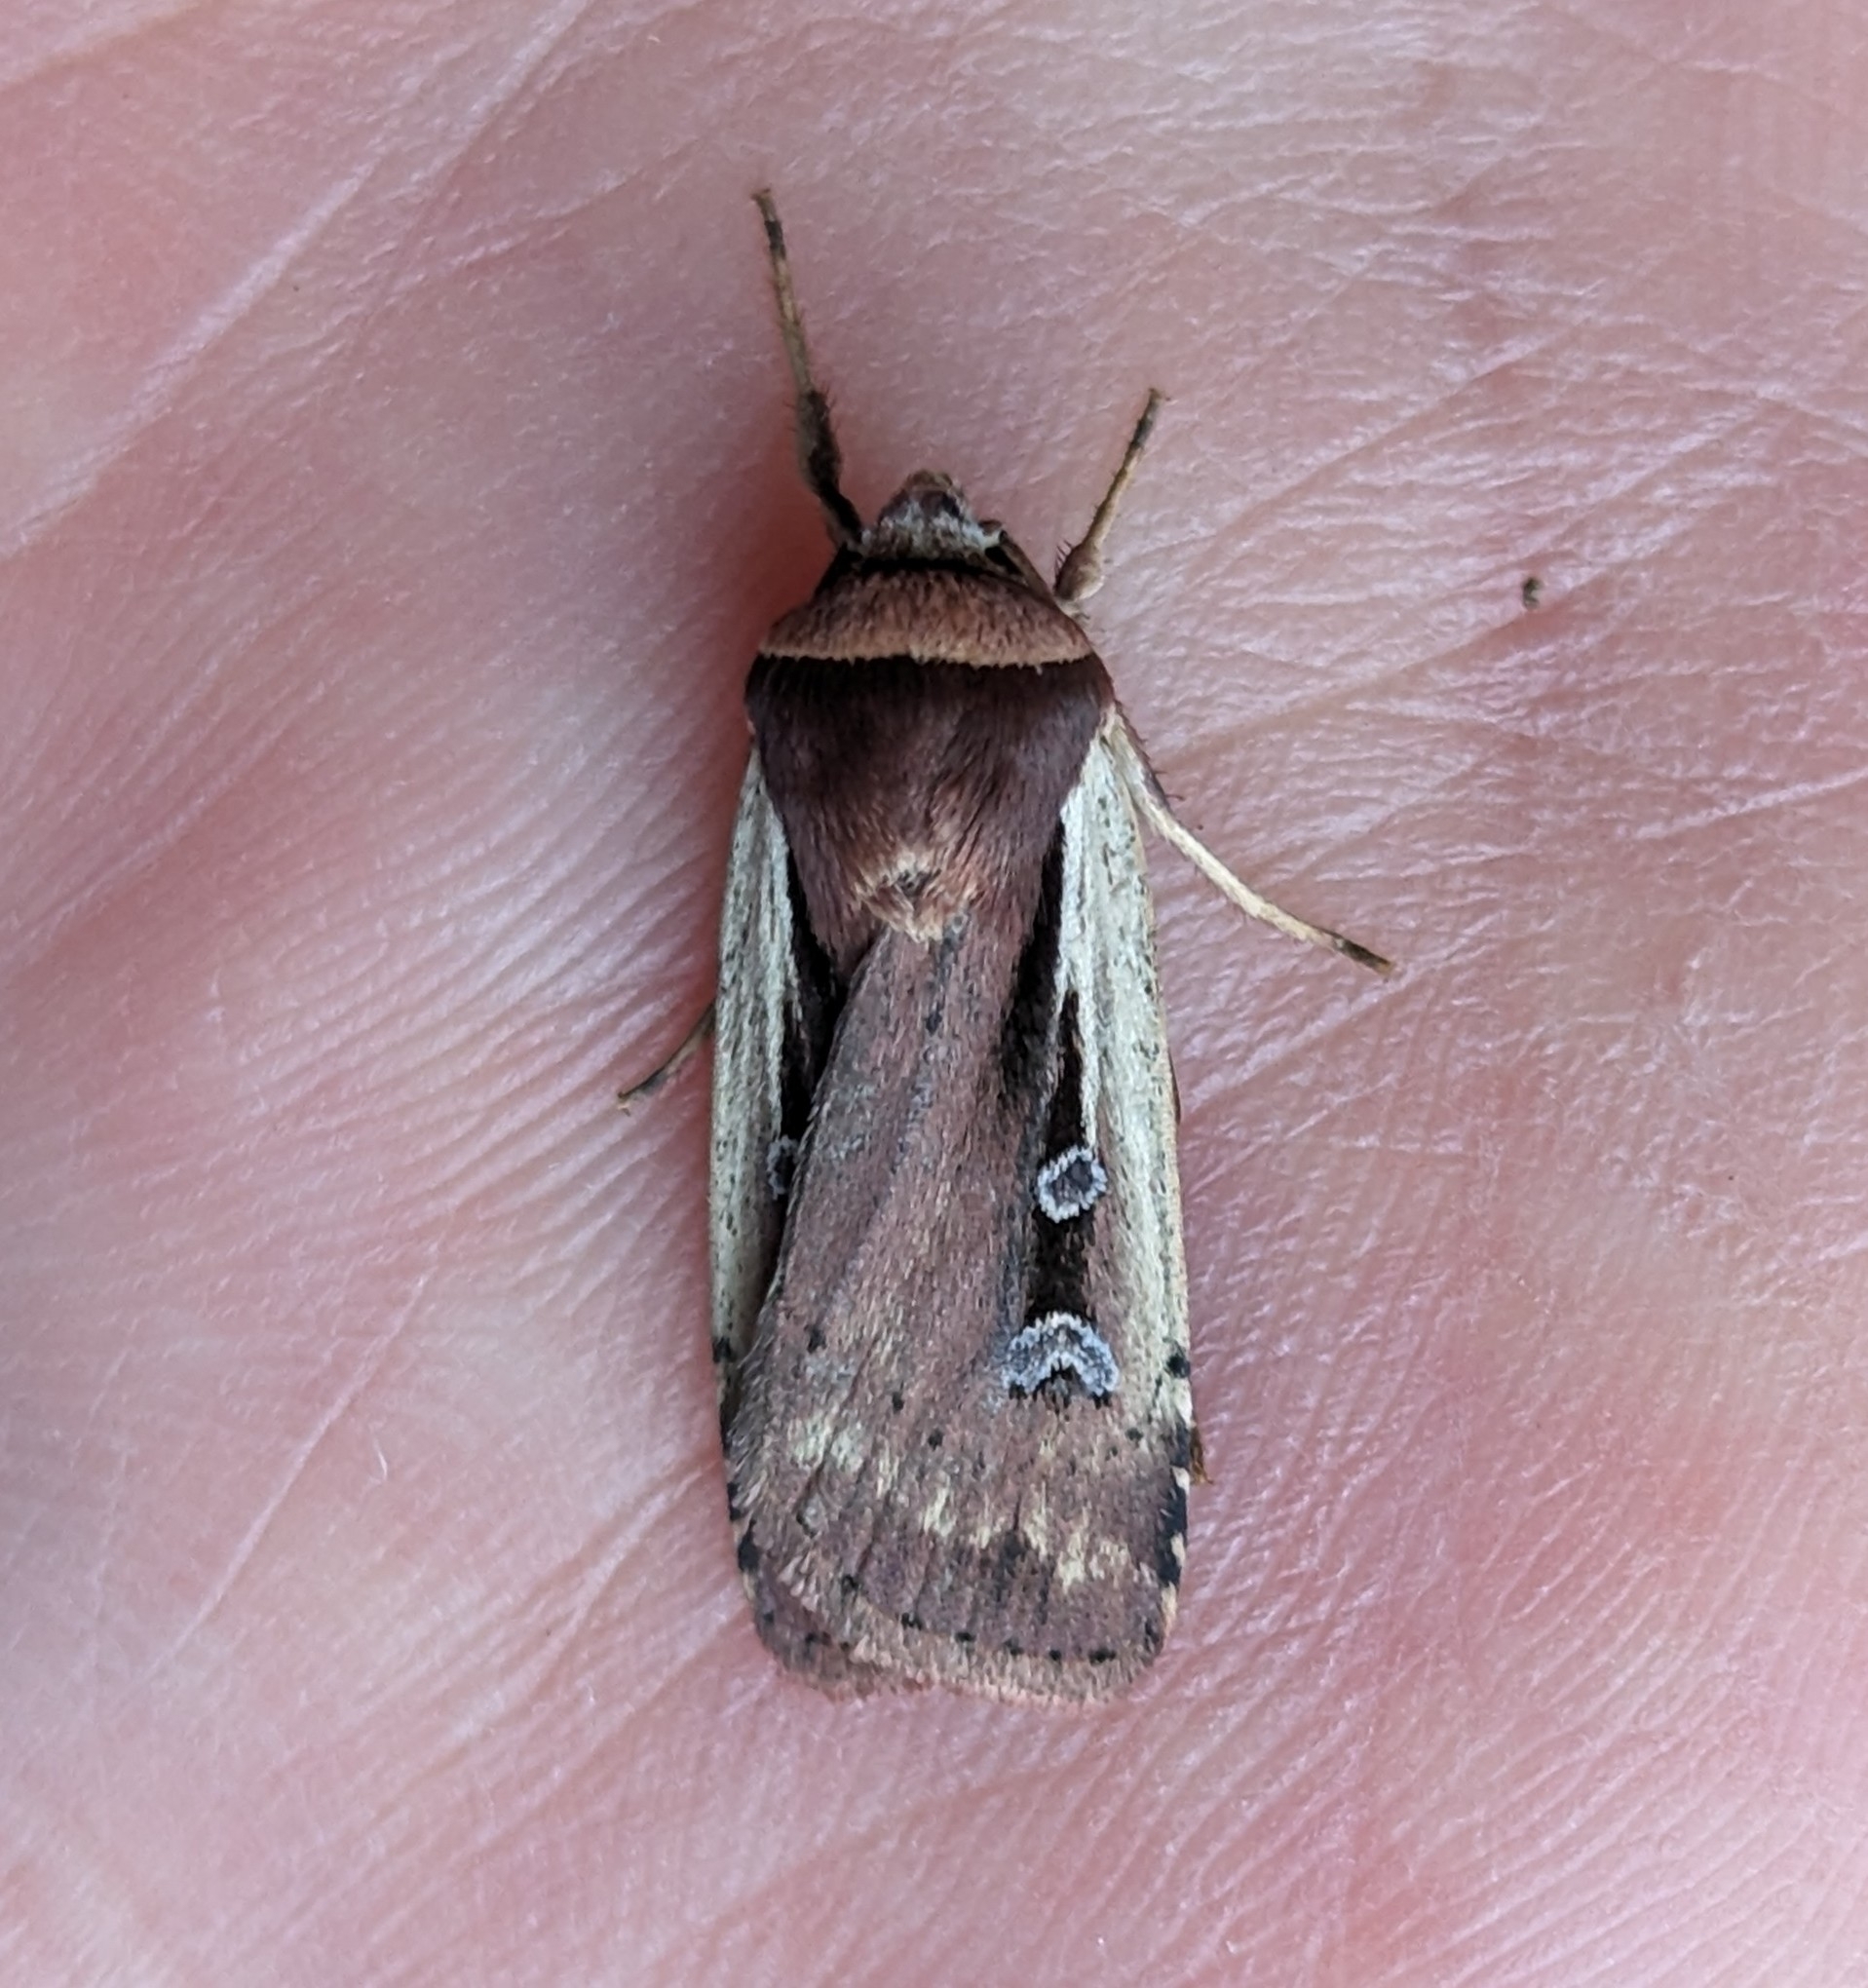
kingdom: Animalia
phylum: Arthropoda
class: Insecta
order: Lepidoptera
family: Noctuidae
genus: Ochropleura
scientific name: Ochropleura implecta
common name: Flame-shouldered dart
